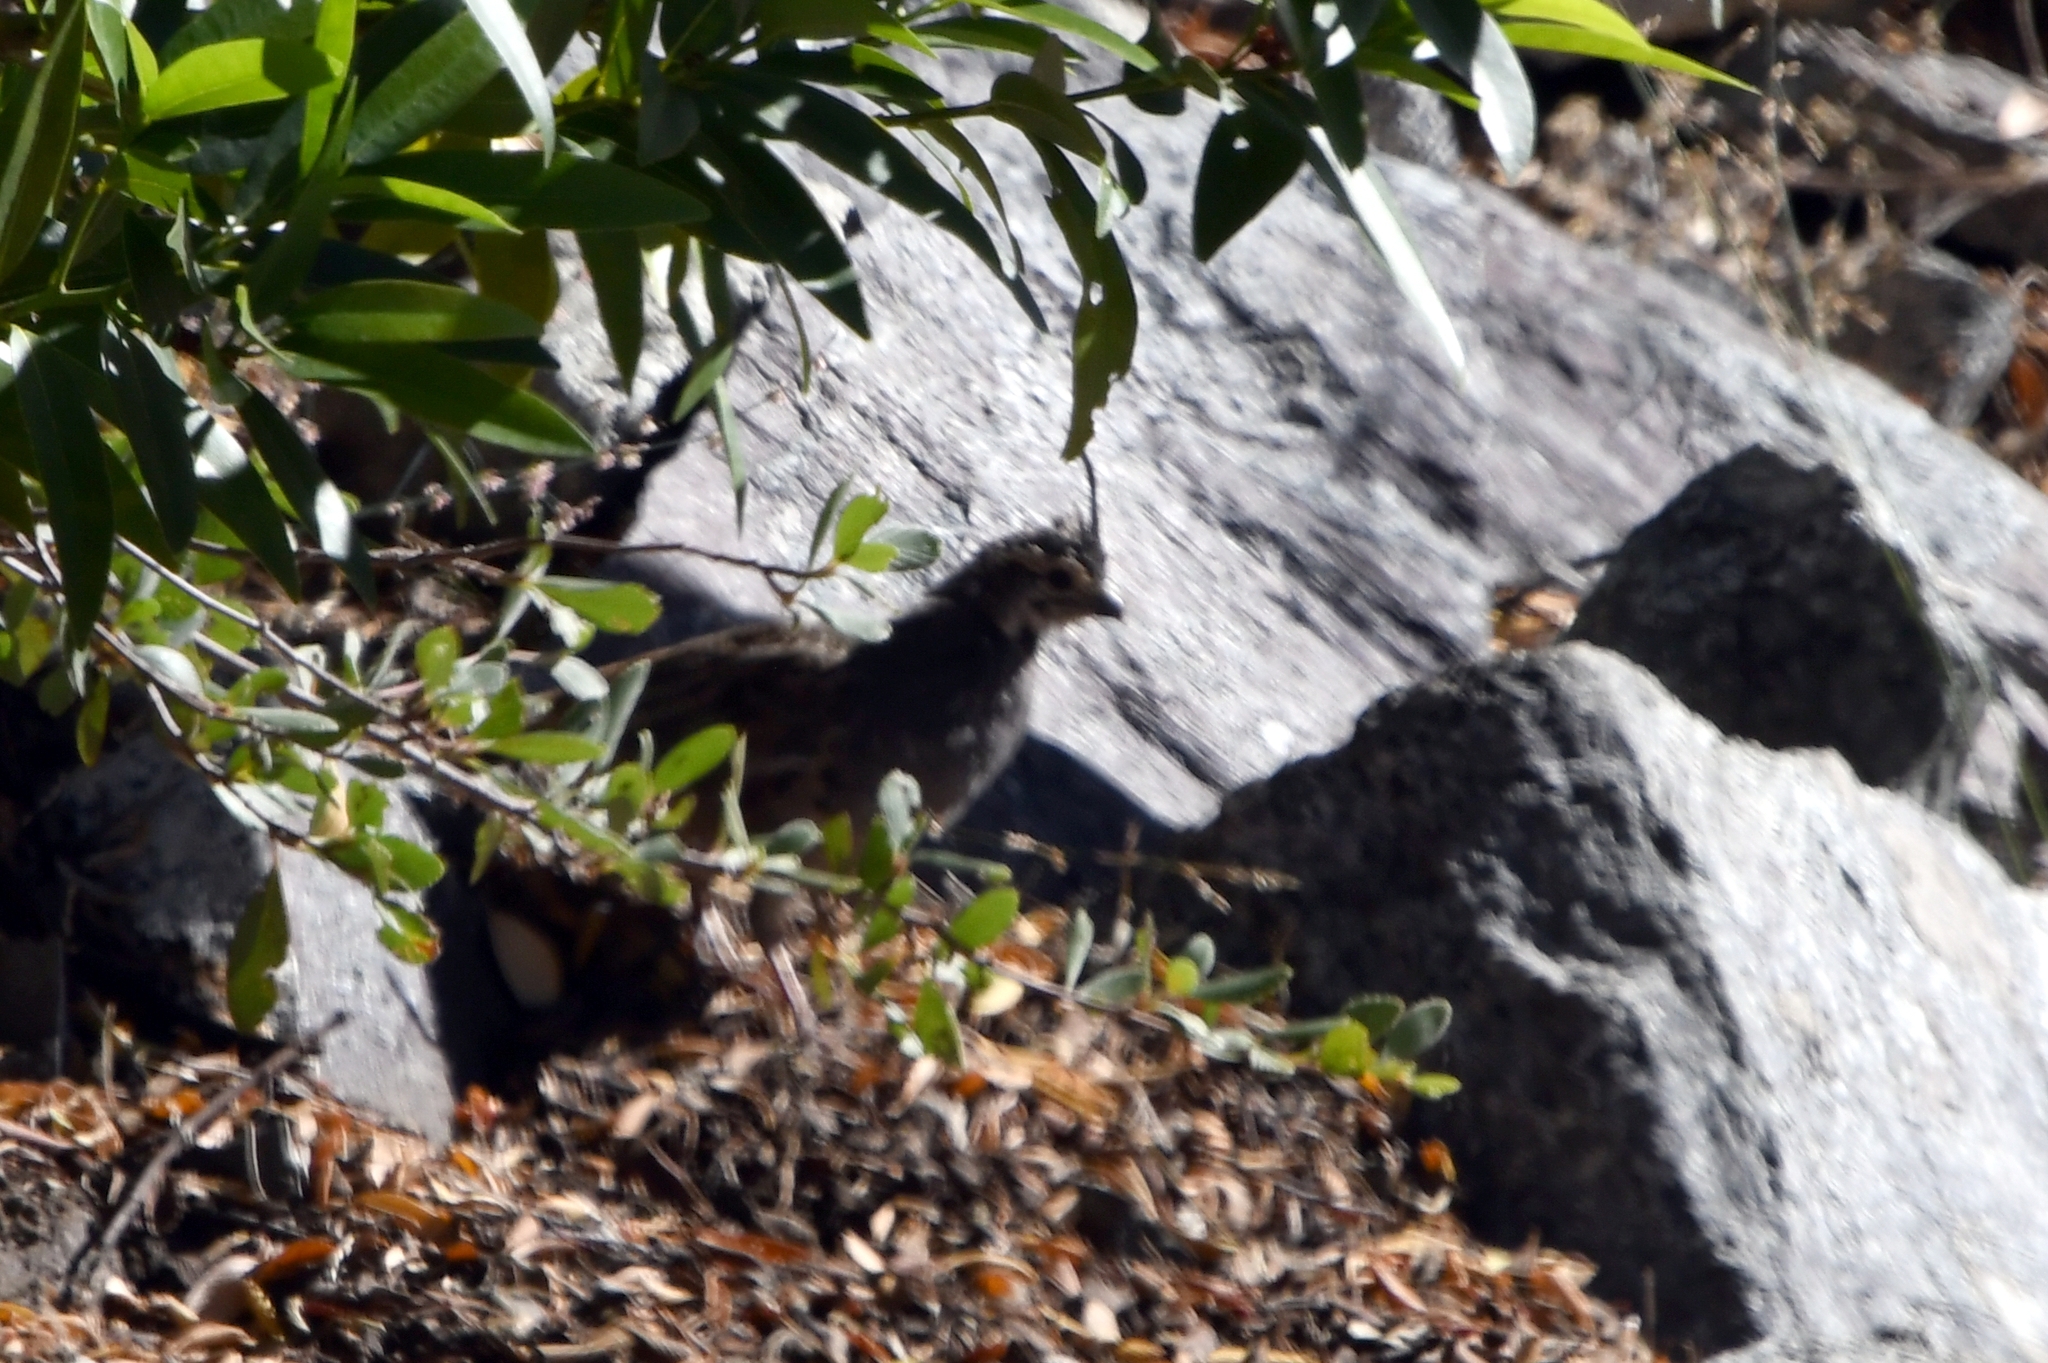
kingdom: Animalia
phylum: Chordata
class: Aves
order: Galliformes
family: Odontophoridae
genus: Oreortyx
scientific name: Oreortyx pictus
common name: Mountain quail
